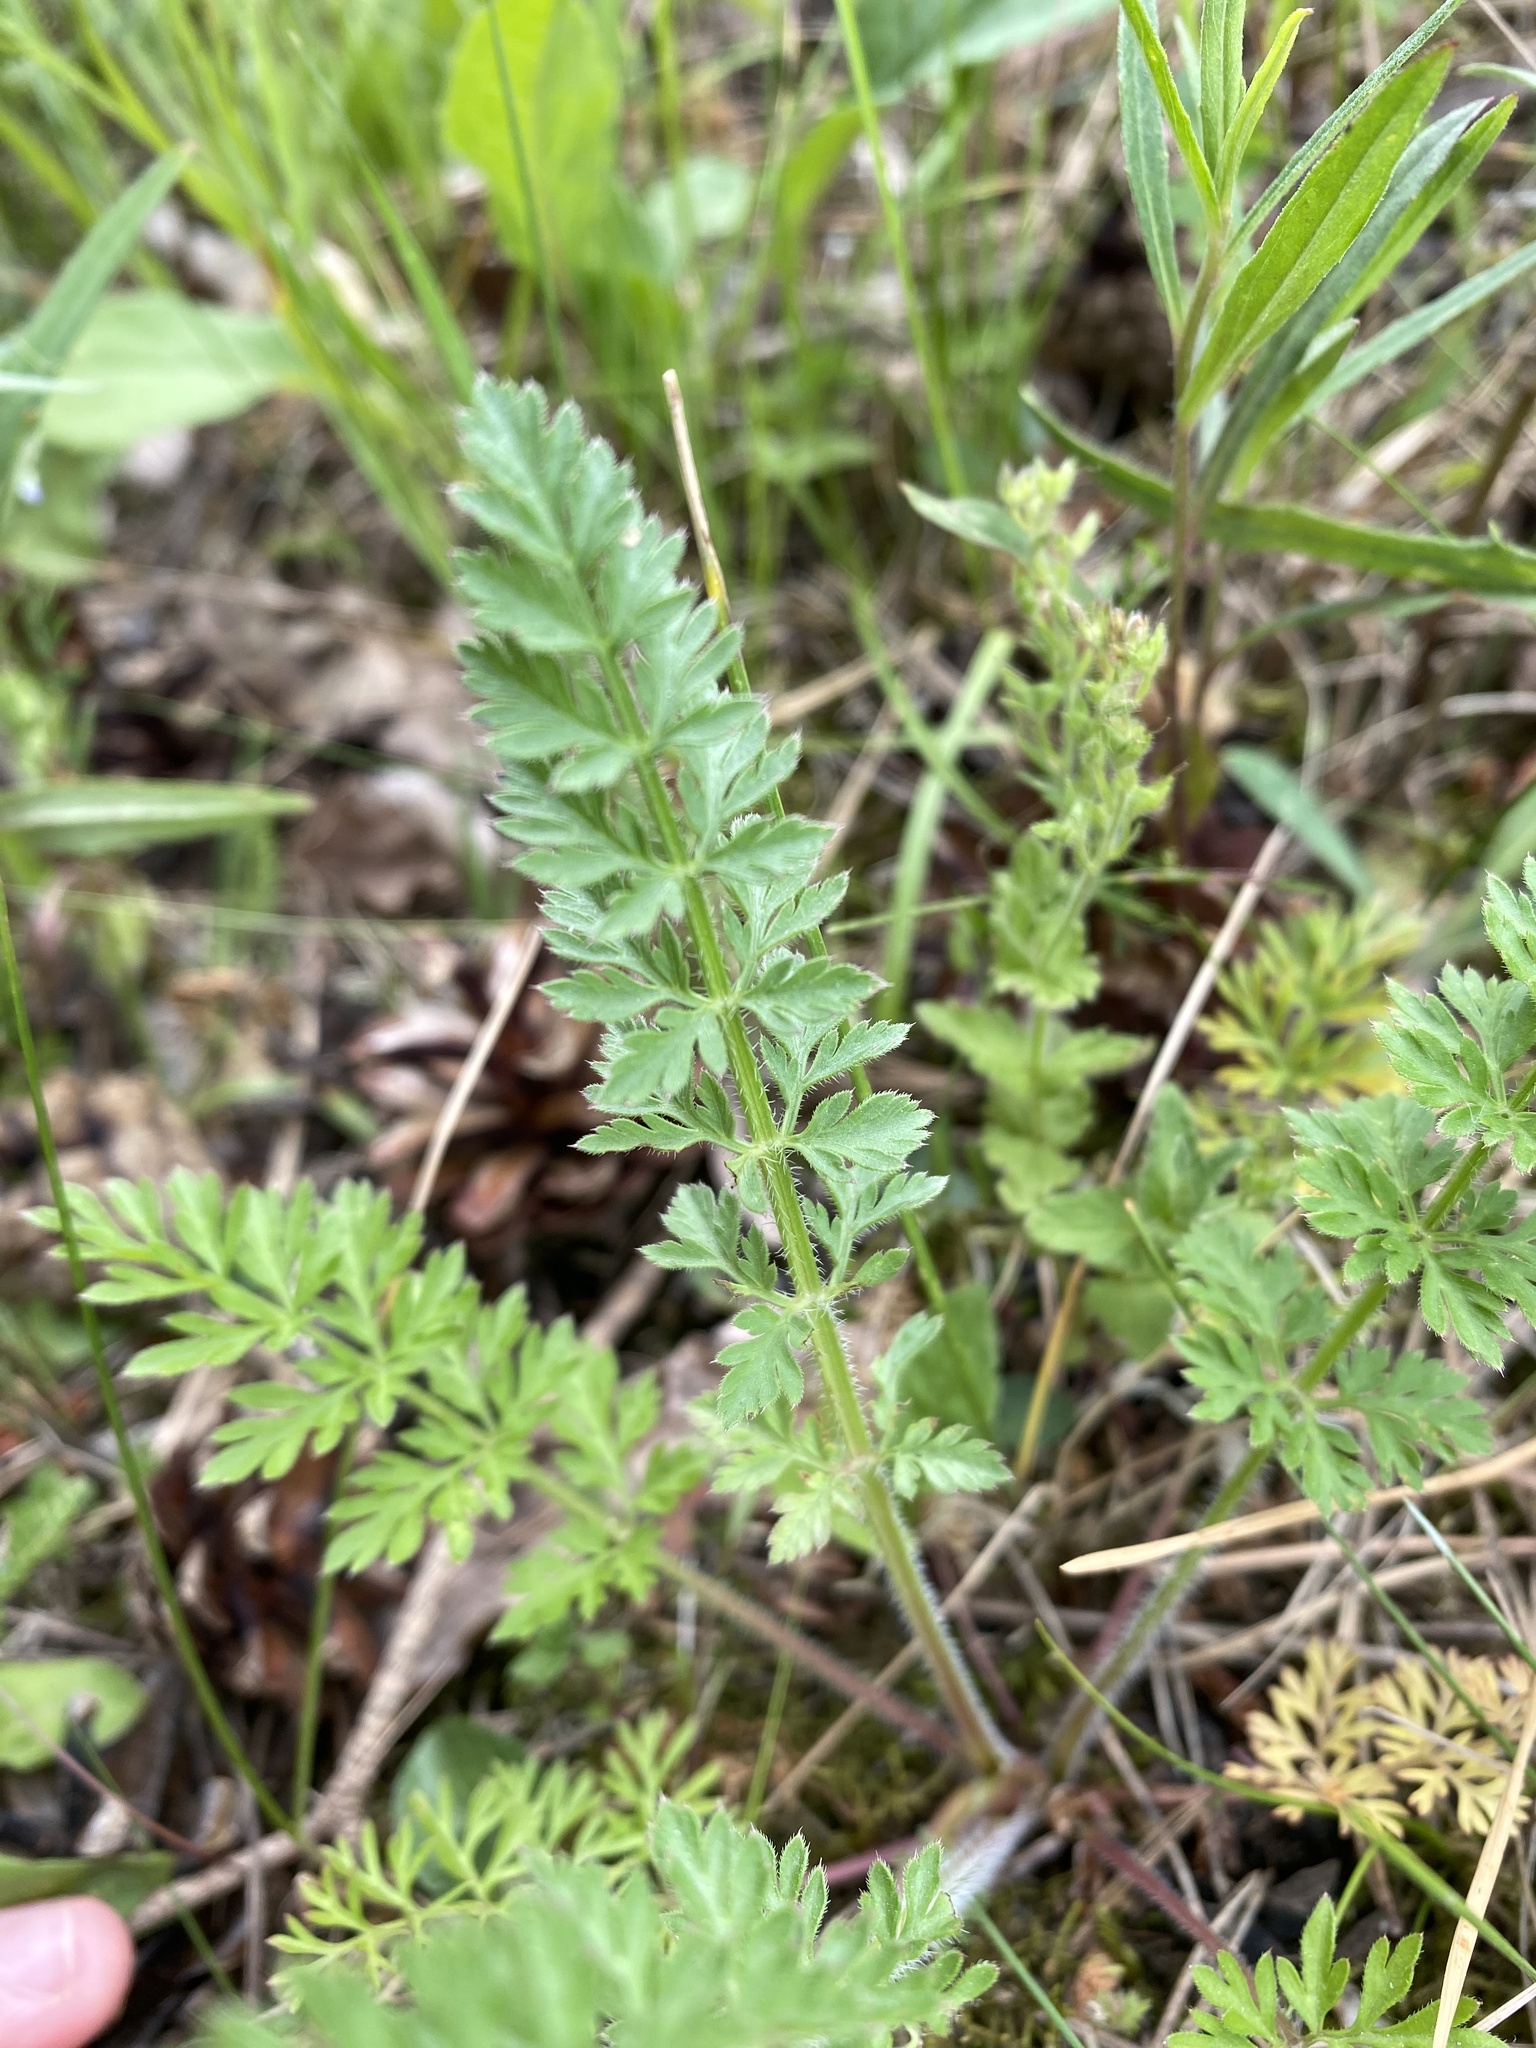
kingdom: Plantae
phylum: Tracheophyta
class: Magnoliopsida
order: Apiales
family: Apiaceae
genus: Daucus
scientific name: Daucus carota
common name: Wild carrot
